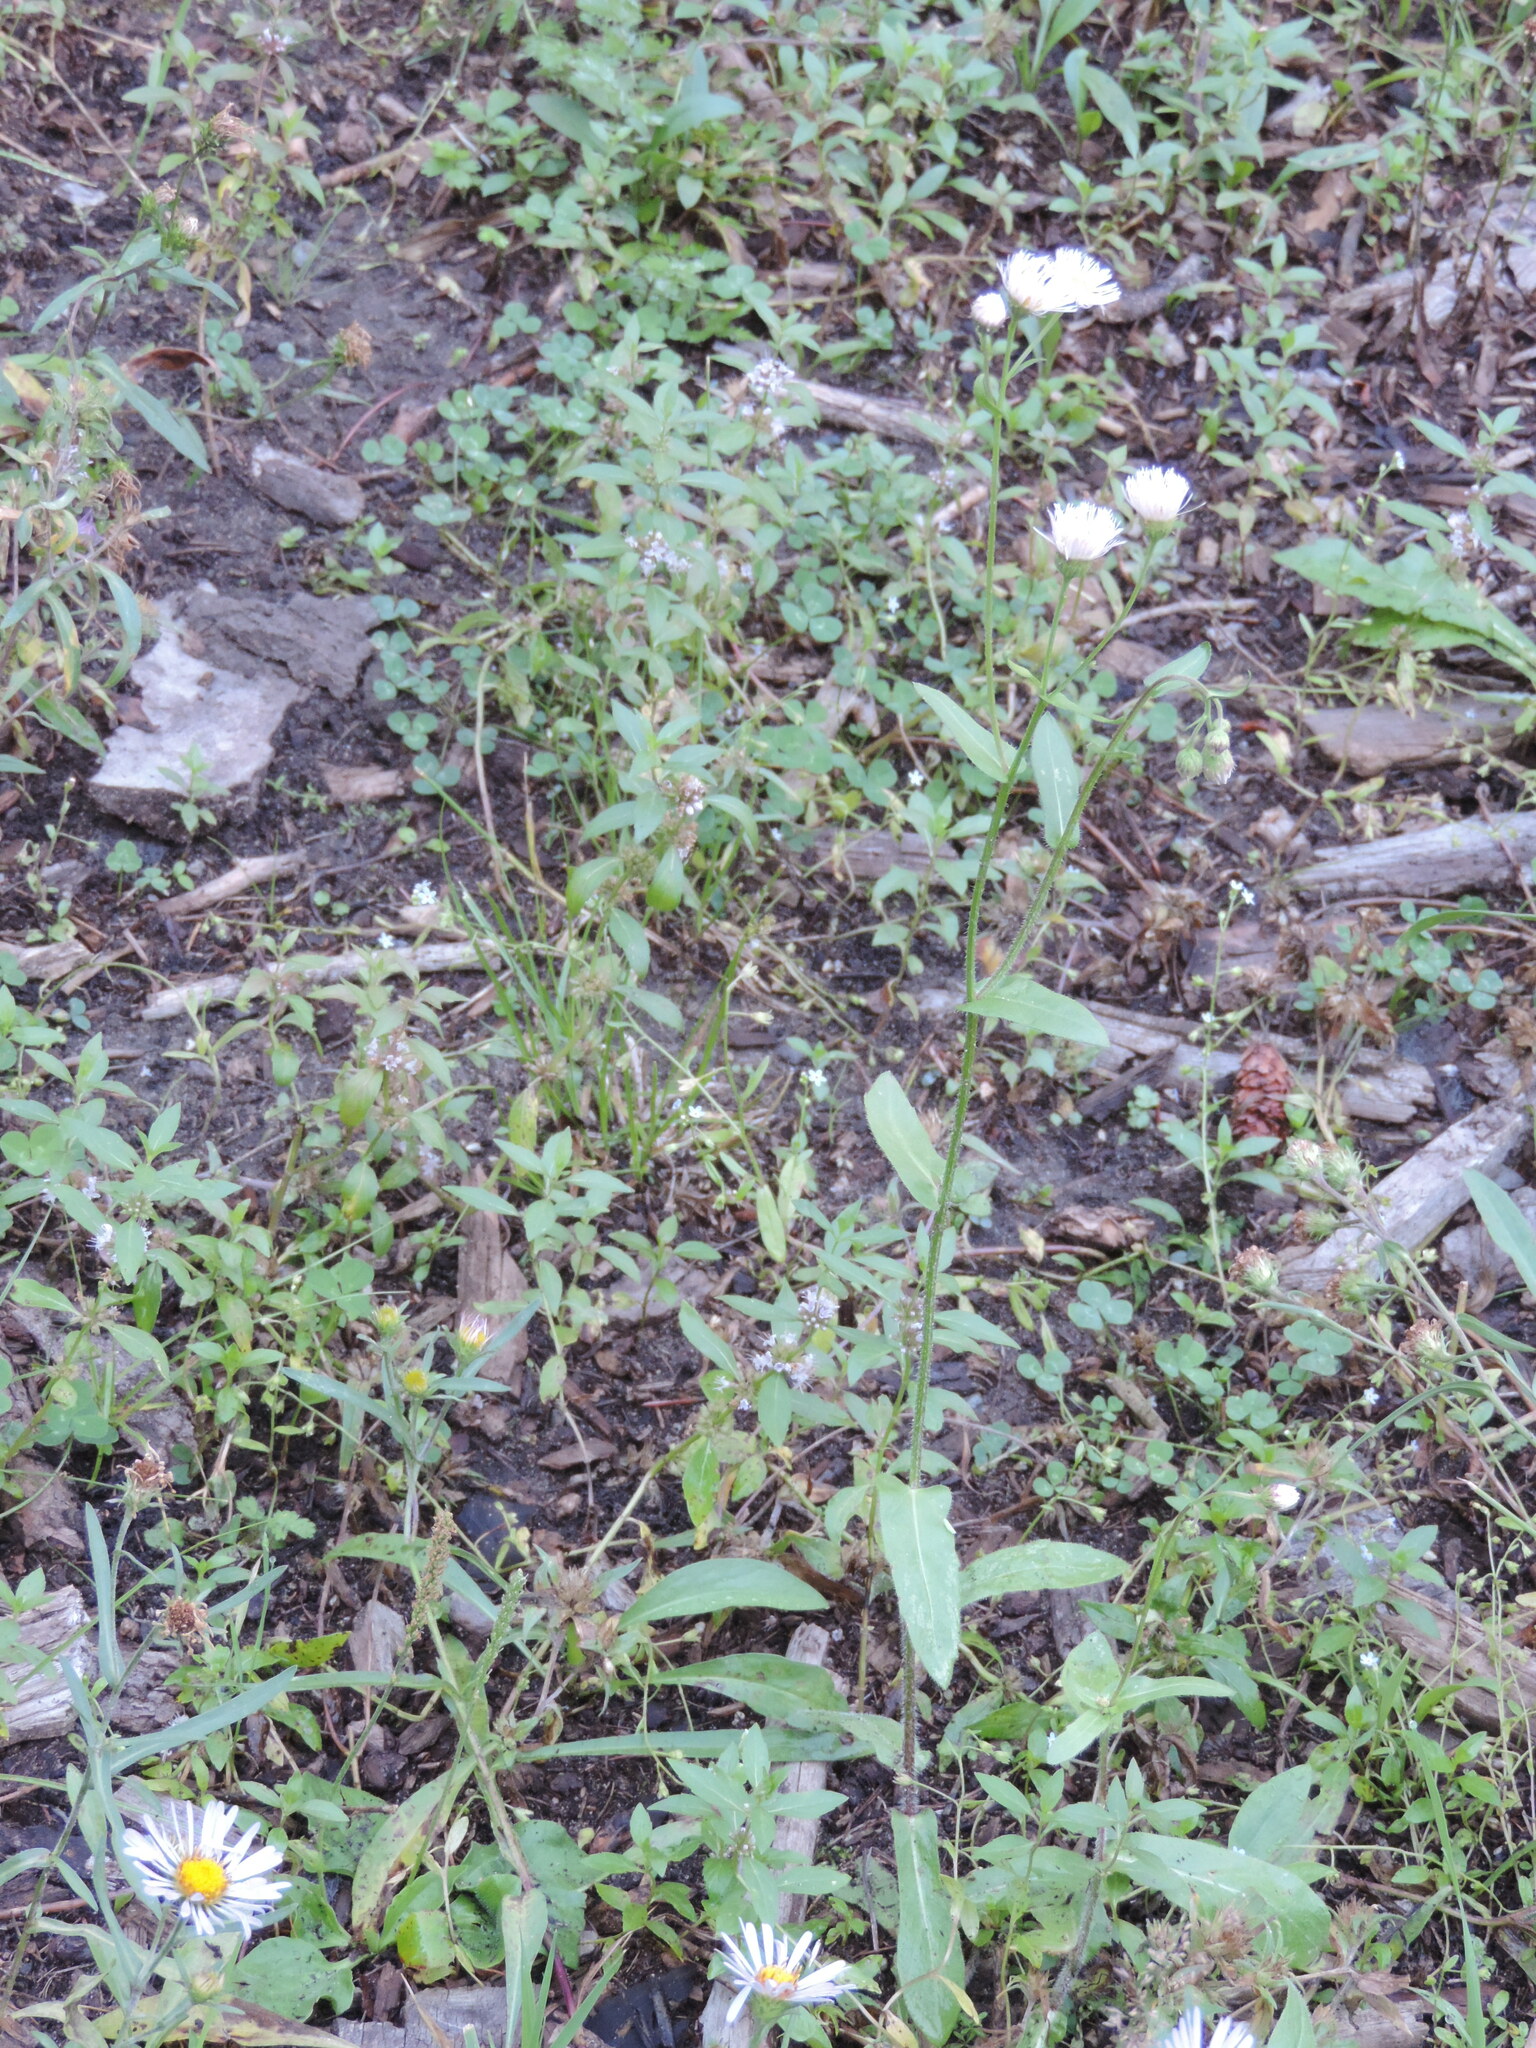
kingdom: Plantae
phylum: Tracheophyta
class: Magnoliopsida
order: Asterales
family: Asteraceae
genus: Erigeron
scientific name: Erigeron philadelphicus
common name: Robin's-plantain
